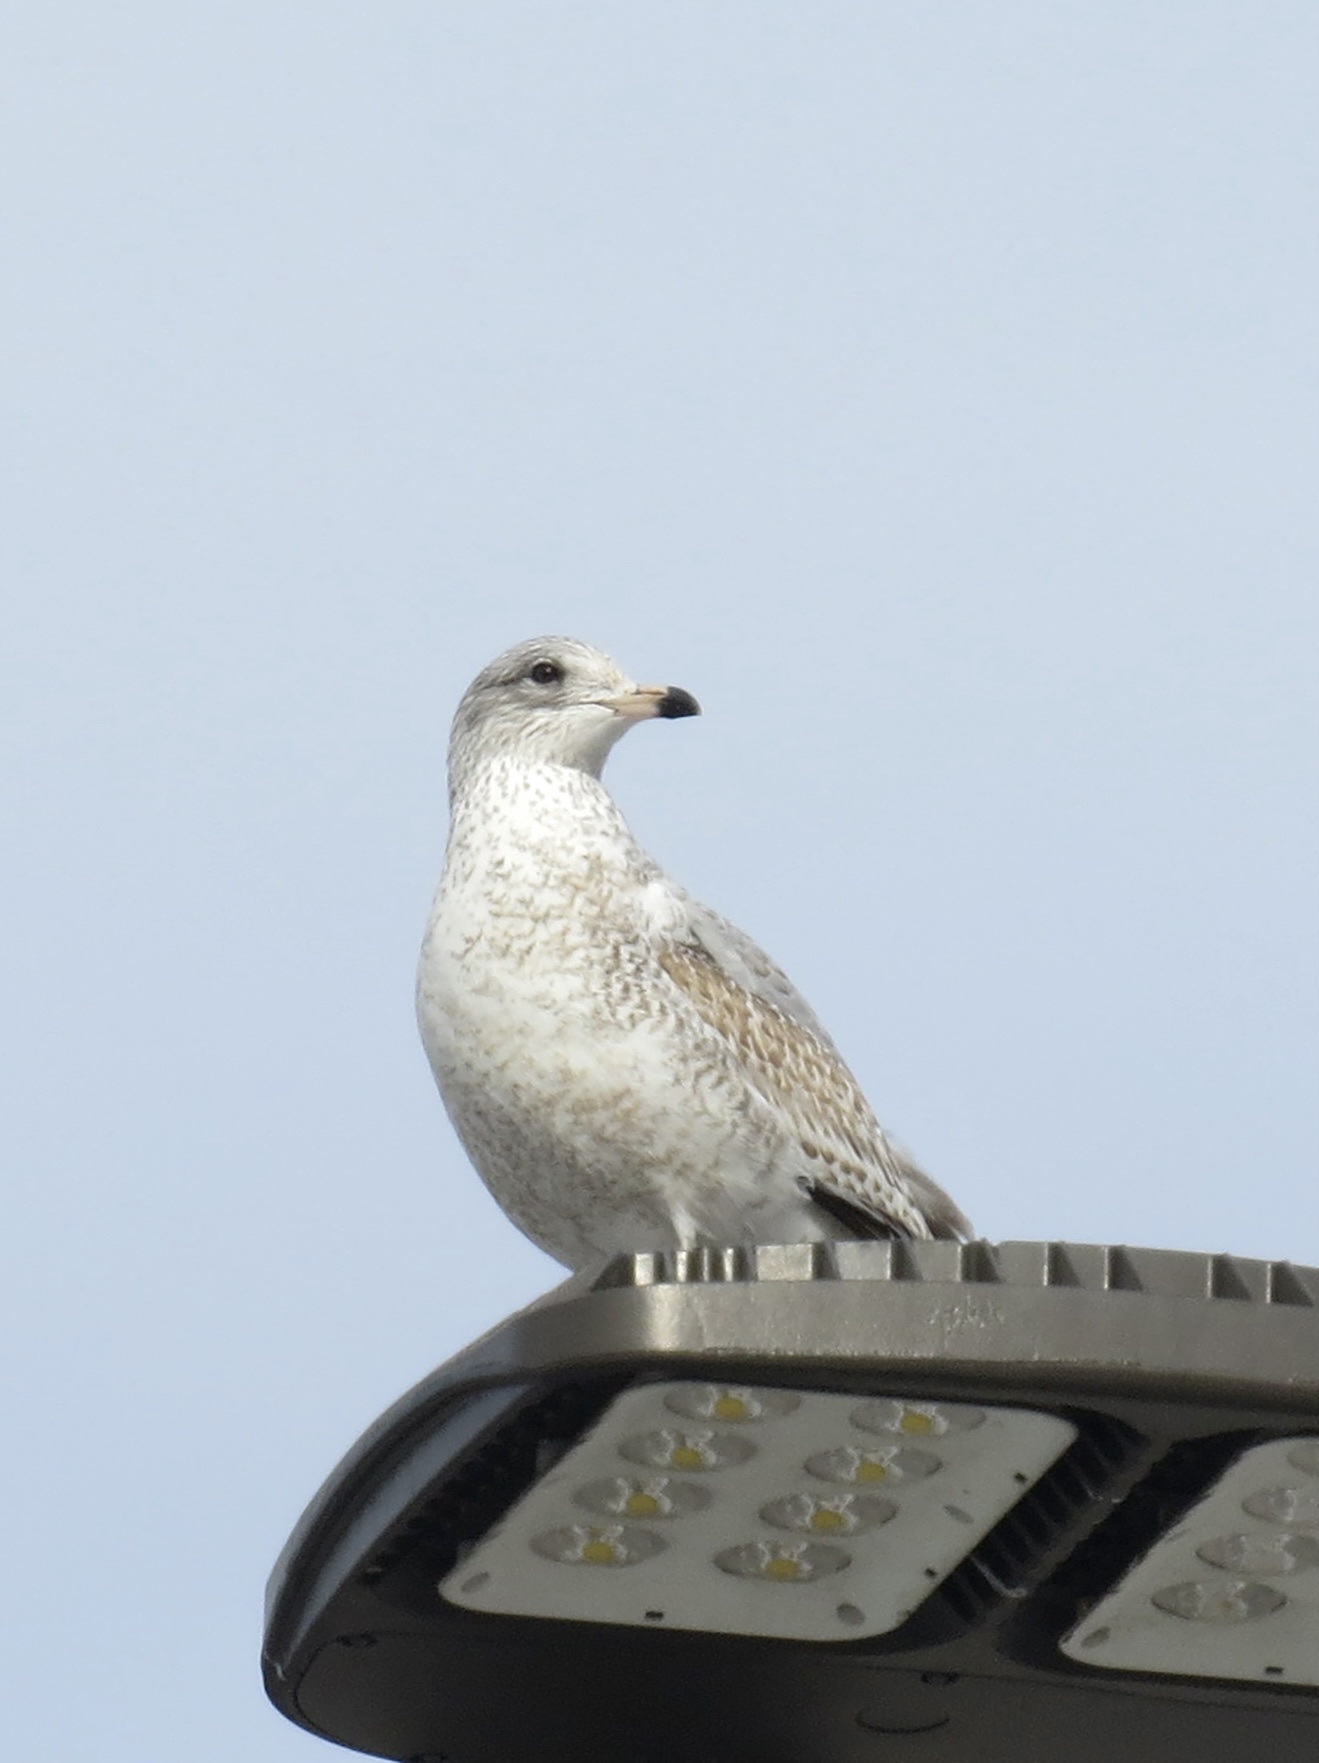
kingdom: Animalia
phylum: Chordata
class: Aves
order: Charadriiformes
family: Laridae
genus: Larus
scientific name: Larus delawarensis
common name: Ring-billed gull
